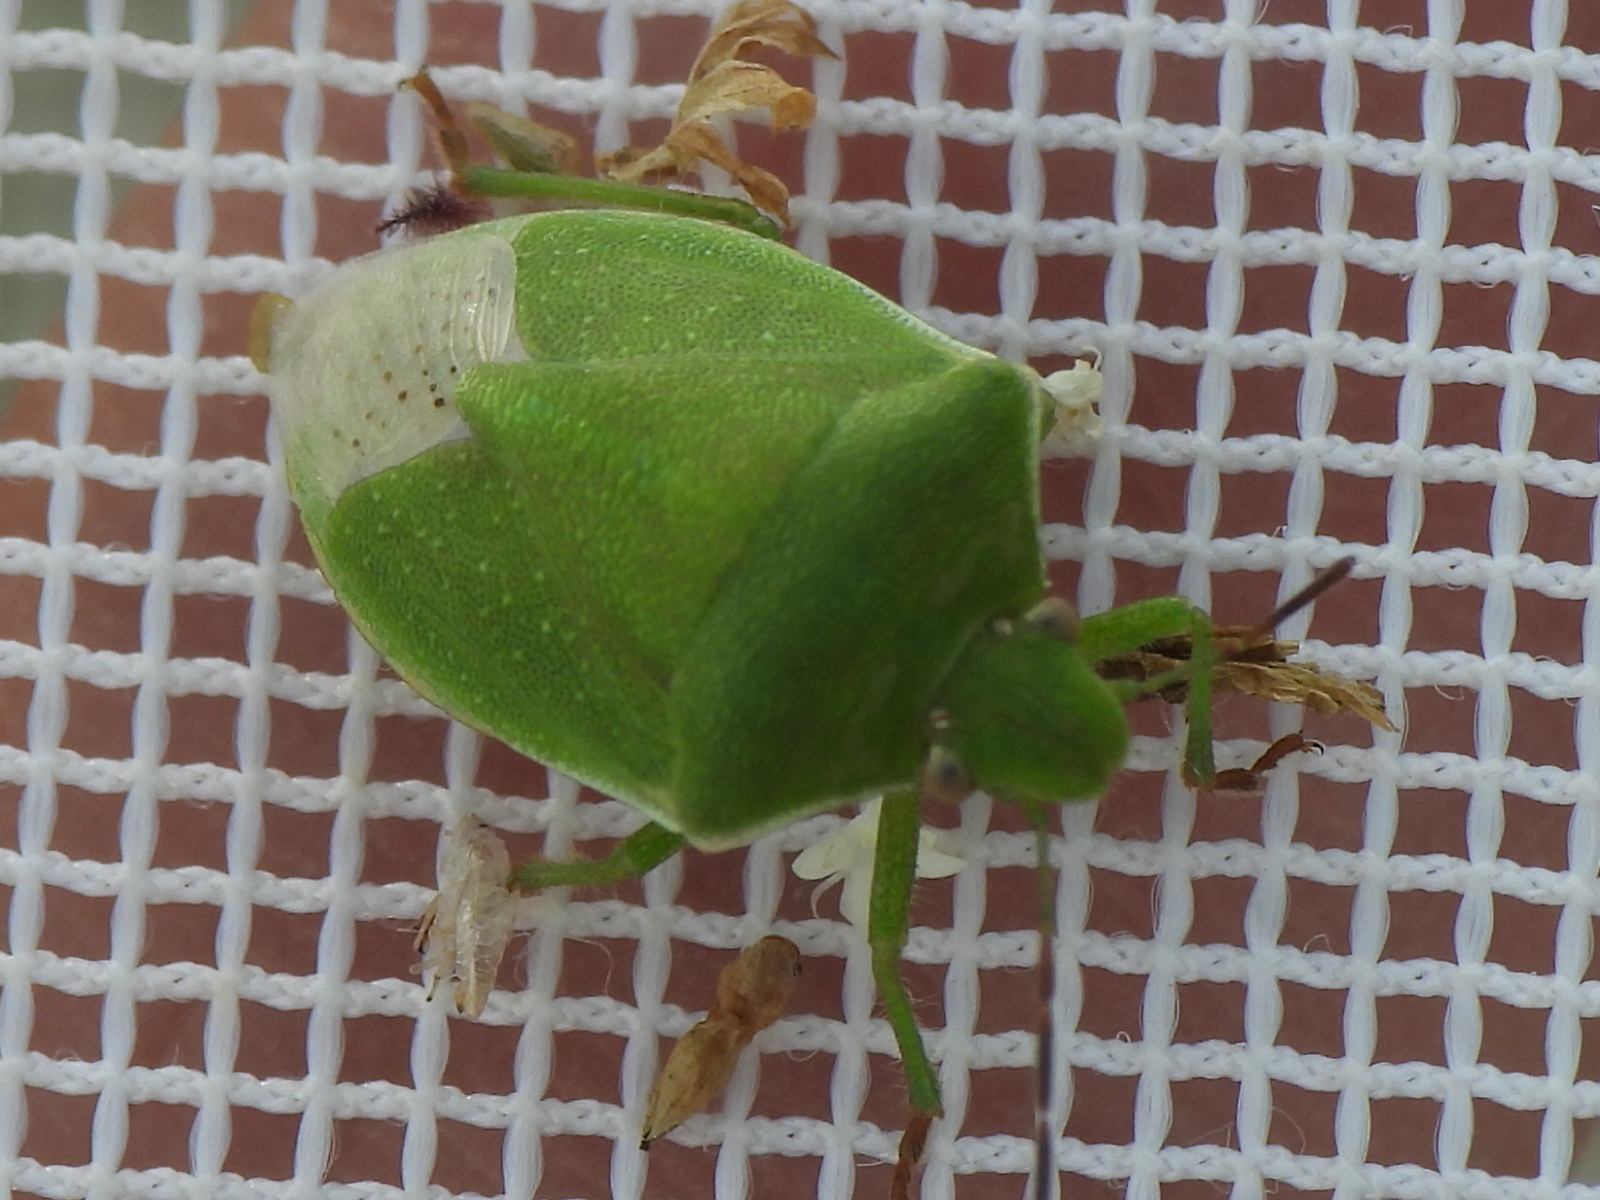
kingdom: Animalia
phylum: Arthropoda
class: Insecta
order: Hemiptera
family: Pentatomidae
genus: Thyanta
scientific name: Thyanta accerra
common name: Stink bug
